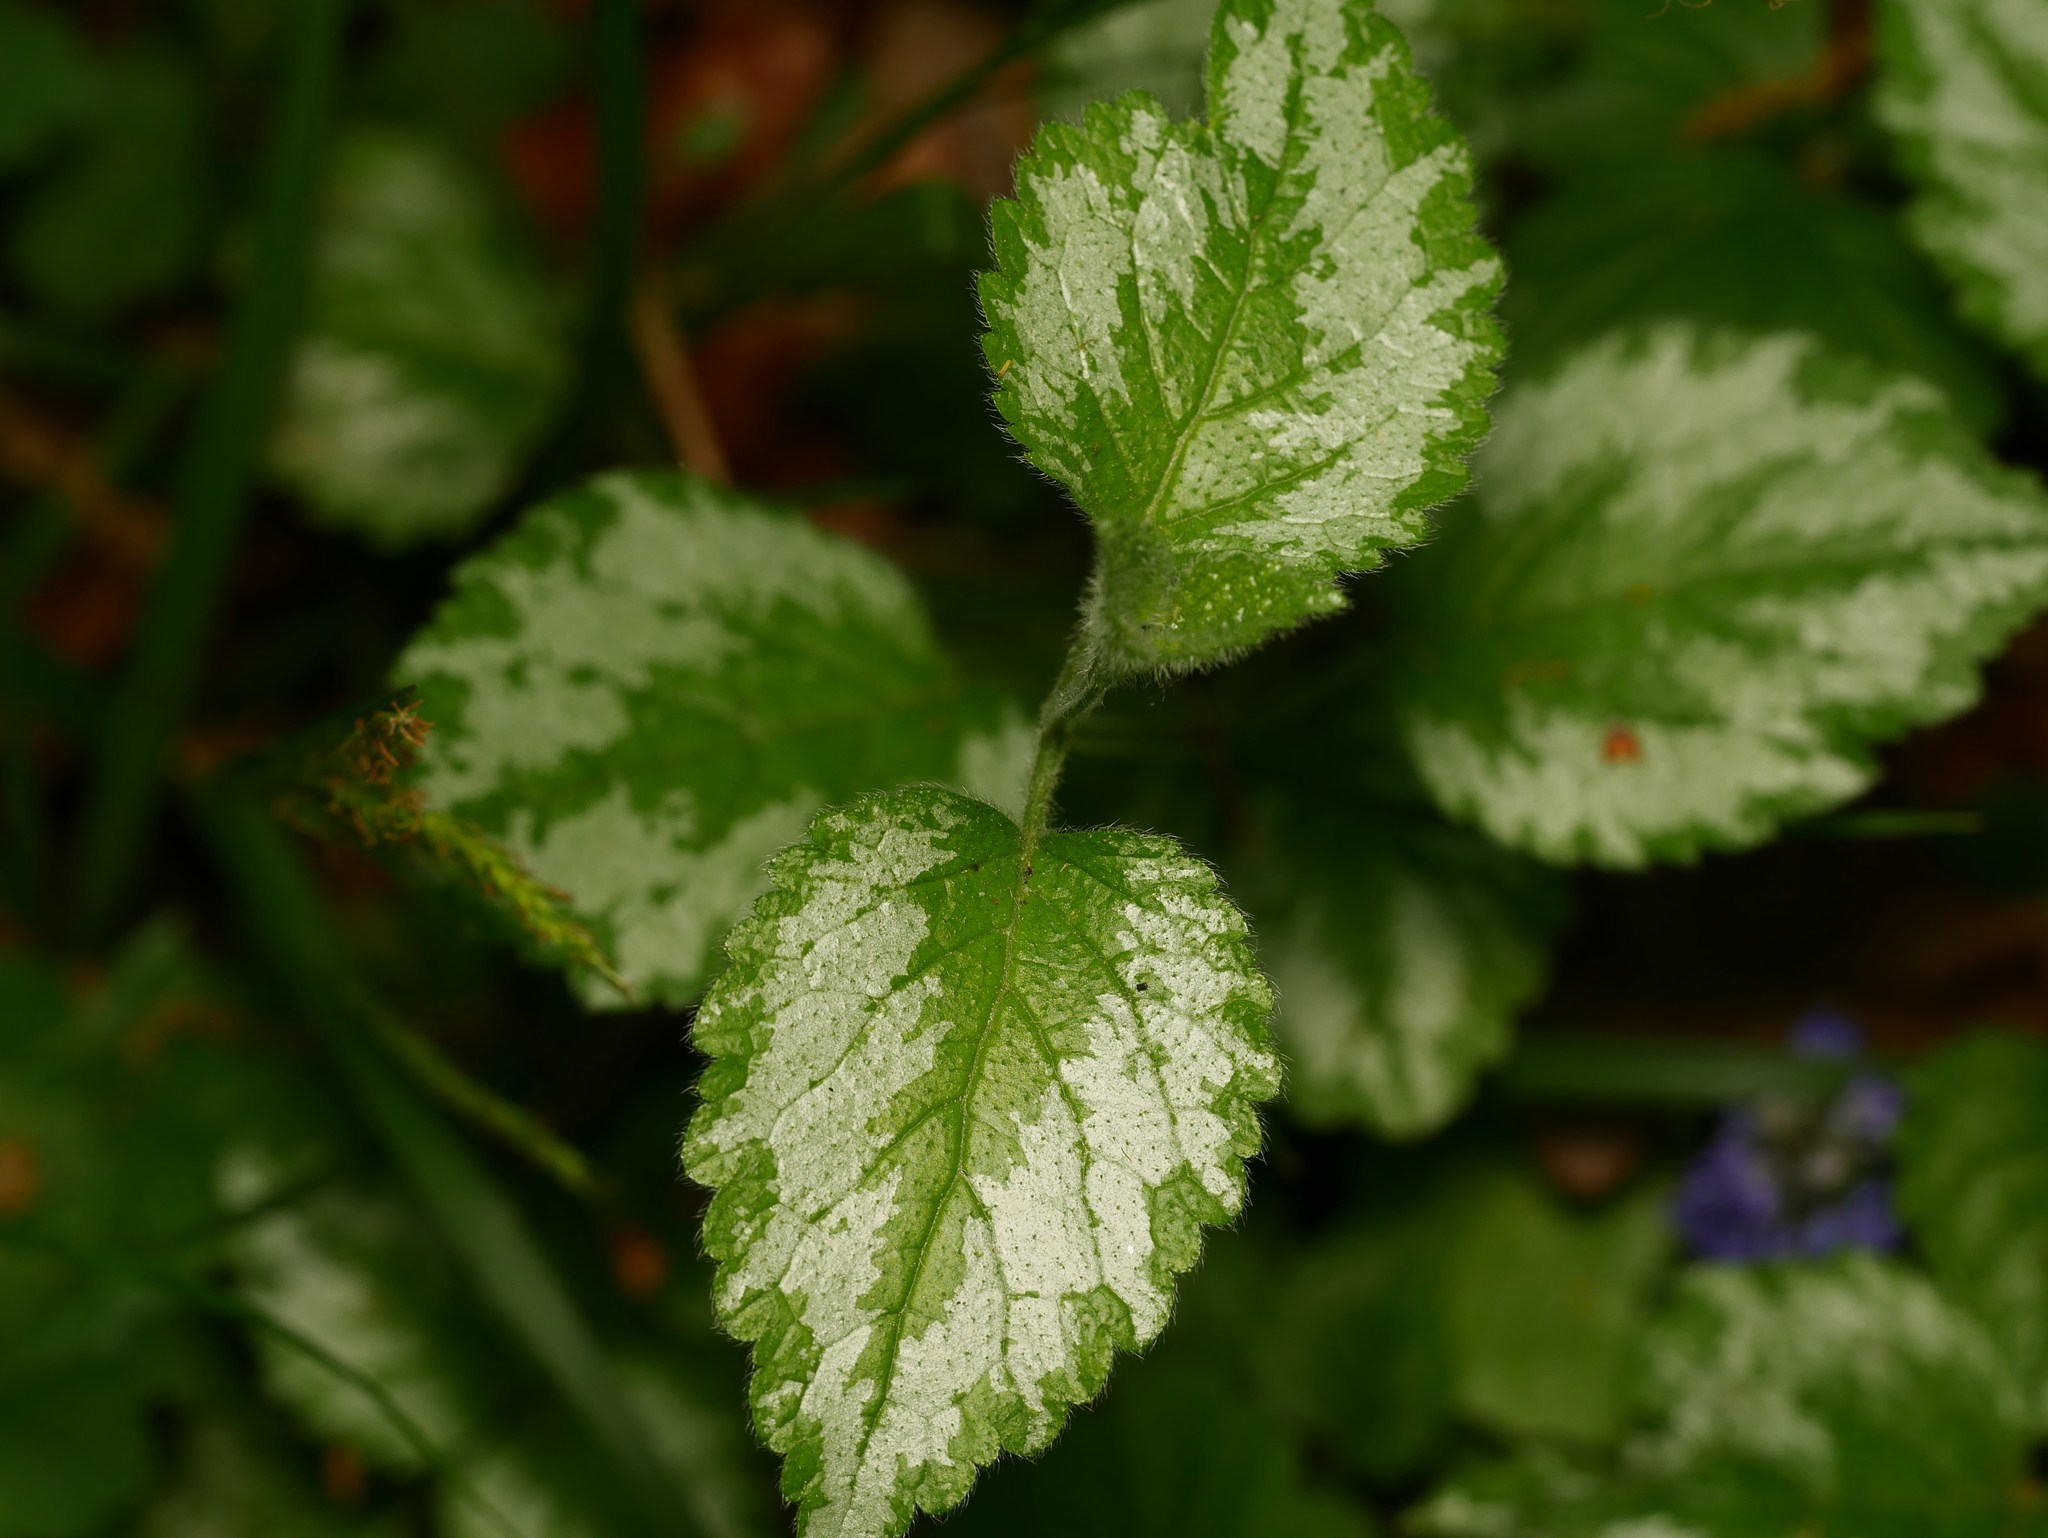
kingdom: Plantae
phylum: Tracheophyta
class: Magnoliopsida
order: Lamiales
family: Lamiaceae
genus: Lamium
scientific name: Lamium galeobdolon
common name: Yellow archangel
